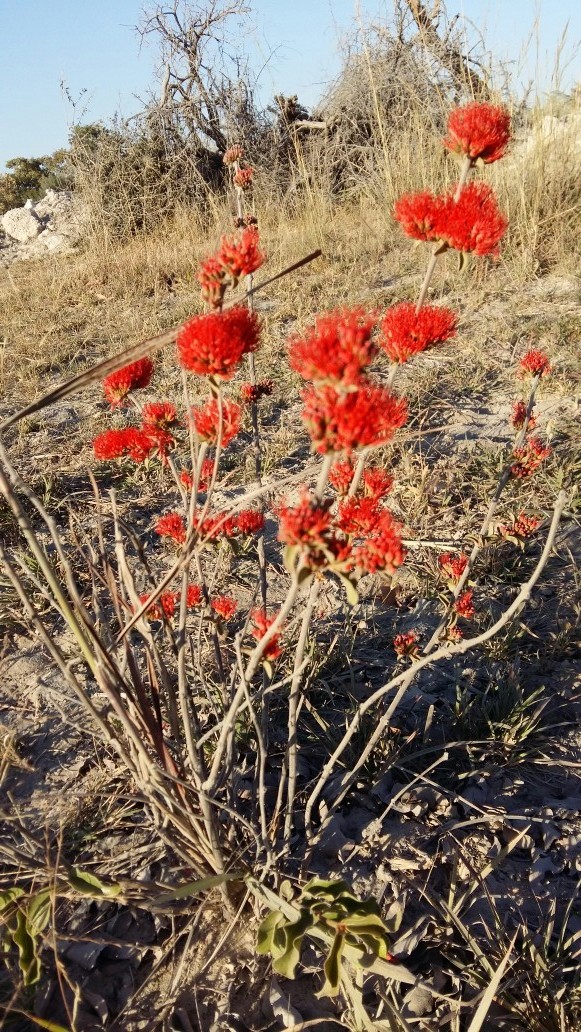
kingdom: Plantae
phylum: Tracheophyta
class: Magnoliopsida
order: Myrtales
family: Combretaceae
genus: Combretum
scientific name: Combretum platypetalum
